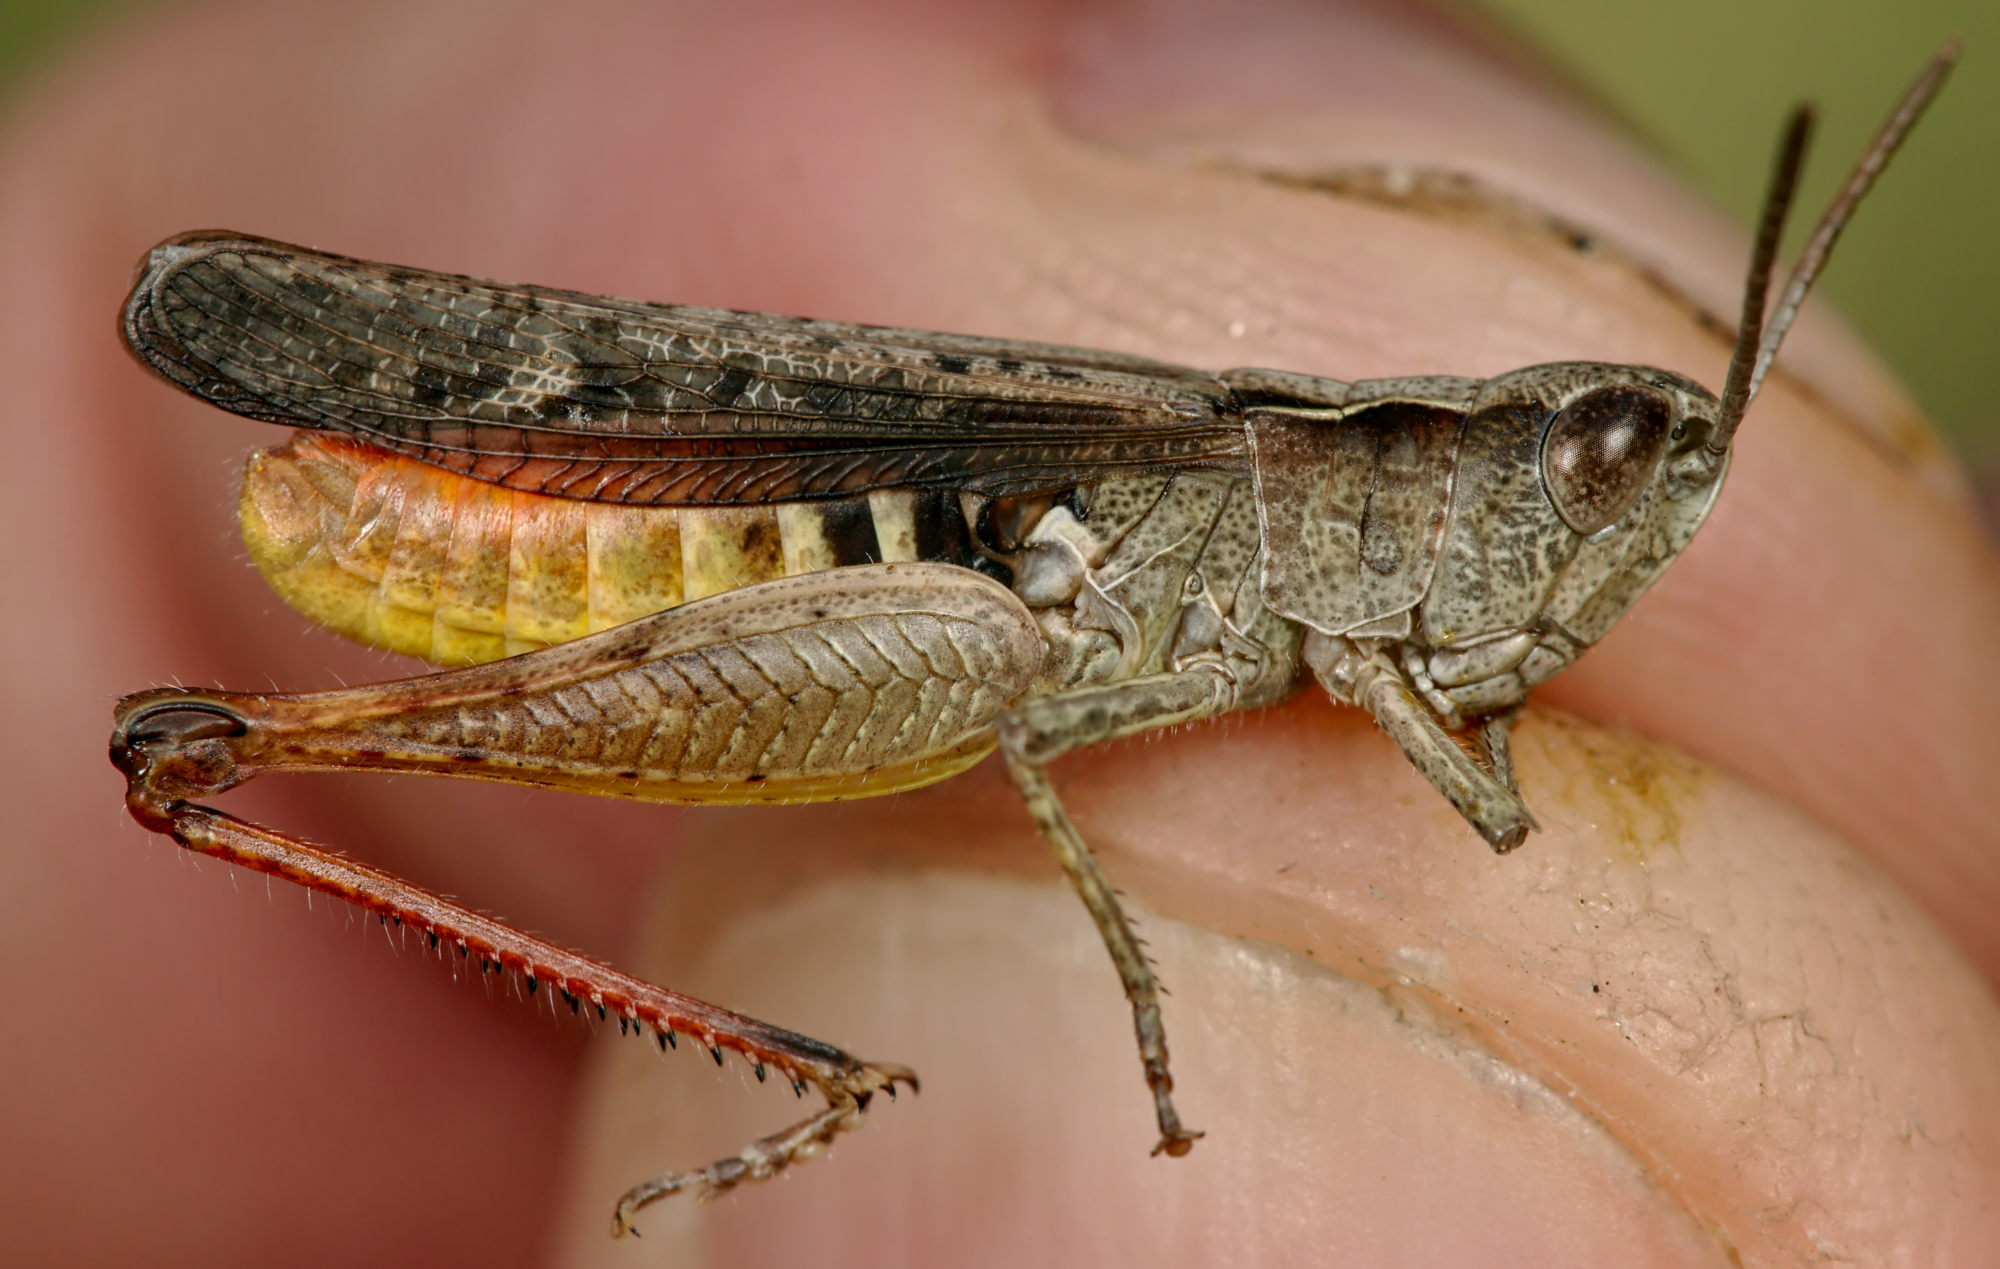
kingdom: Animalia
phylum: Arthropoda
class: Insecta
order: Orthoptera
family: Acrididae
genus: Chorthippus
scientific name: Chorthippus vagans
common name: Heath grasshopper
